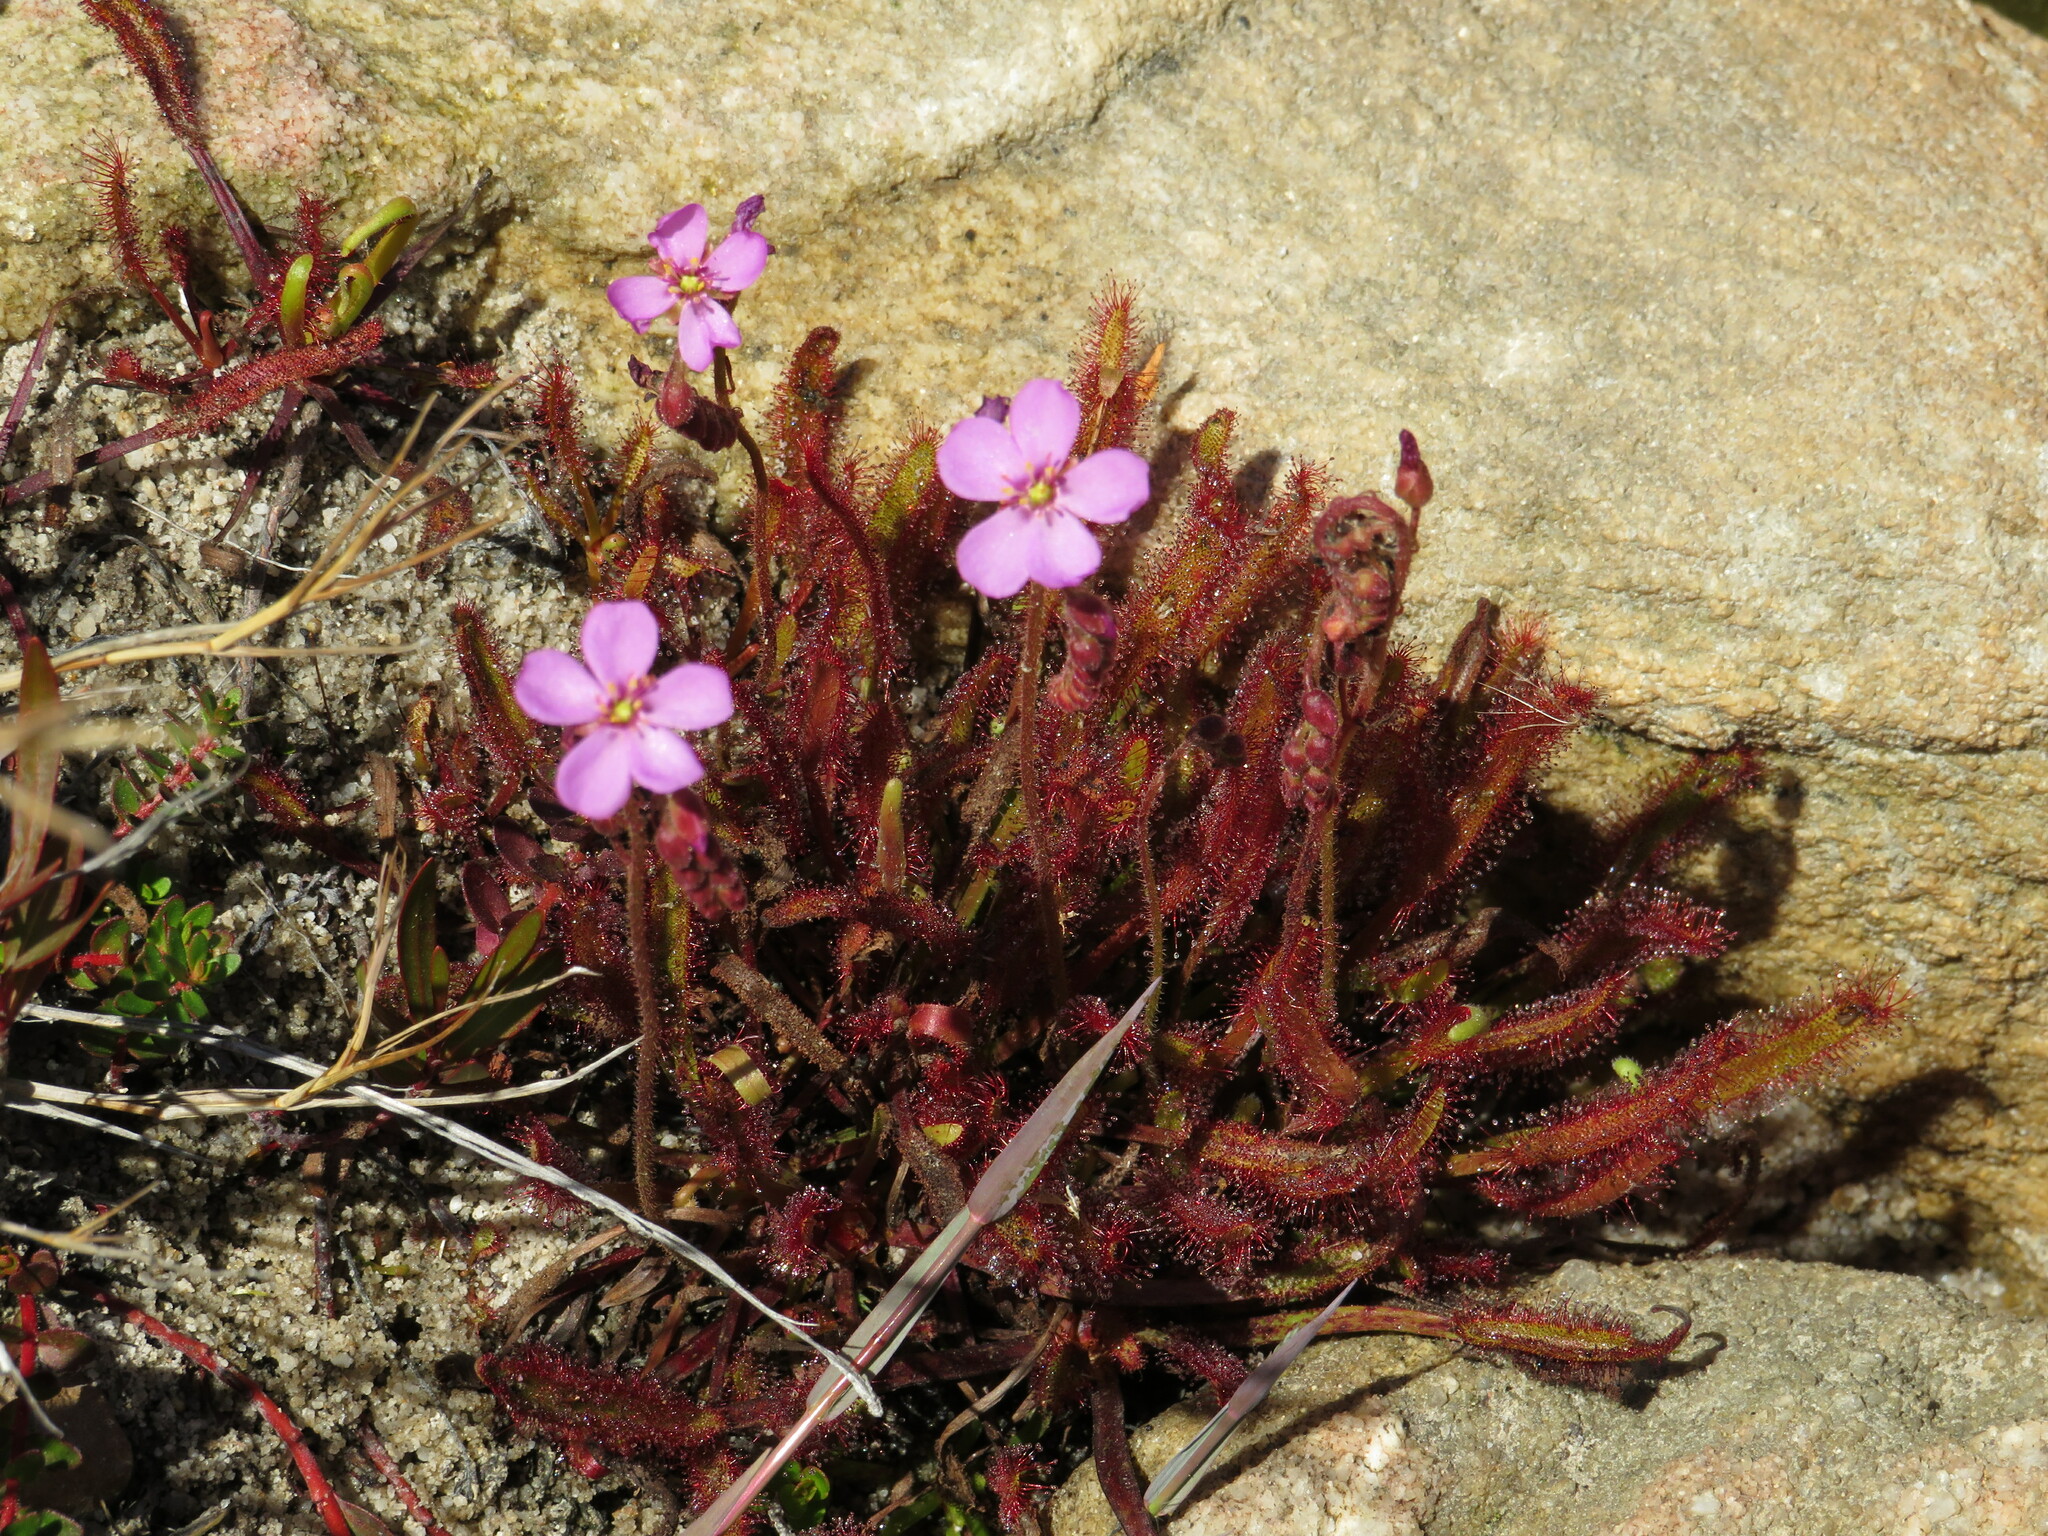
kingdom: Plantae
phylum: Tracheophyta
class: Magnoliopsida
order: Caryophyllales
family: Droseraceae
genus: Drosera
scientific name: Drosera capensis
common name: Cape sundew
